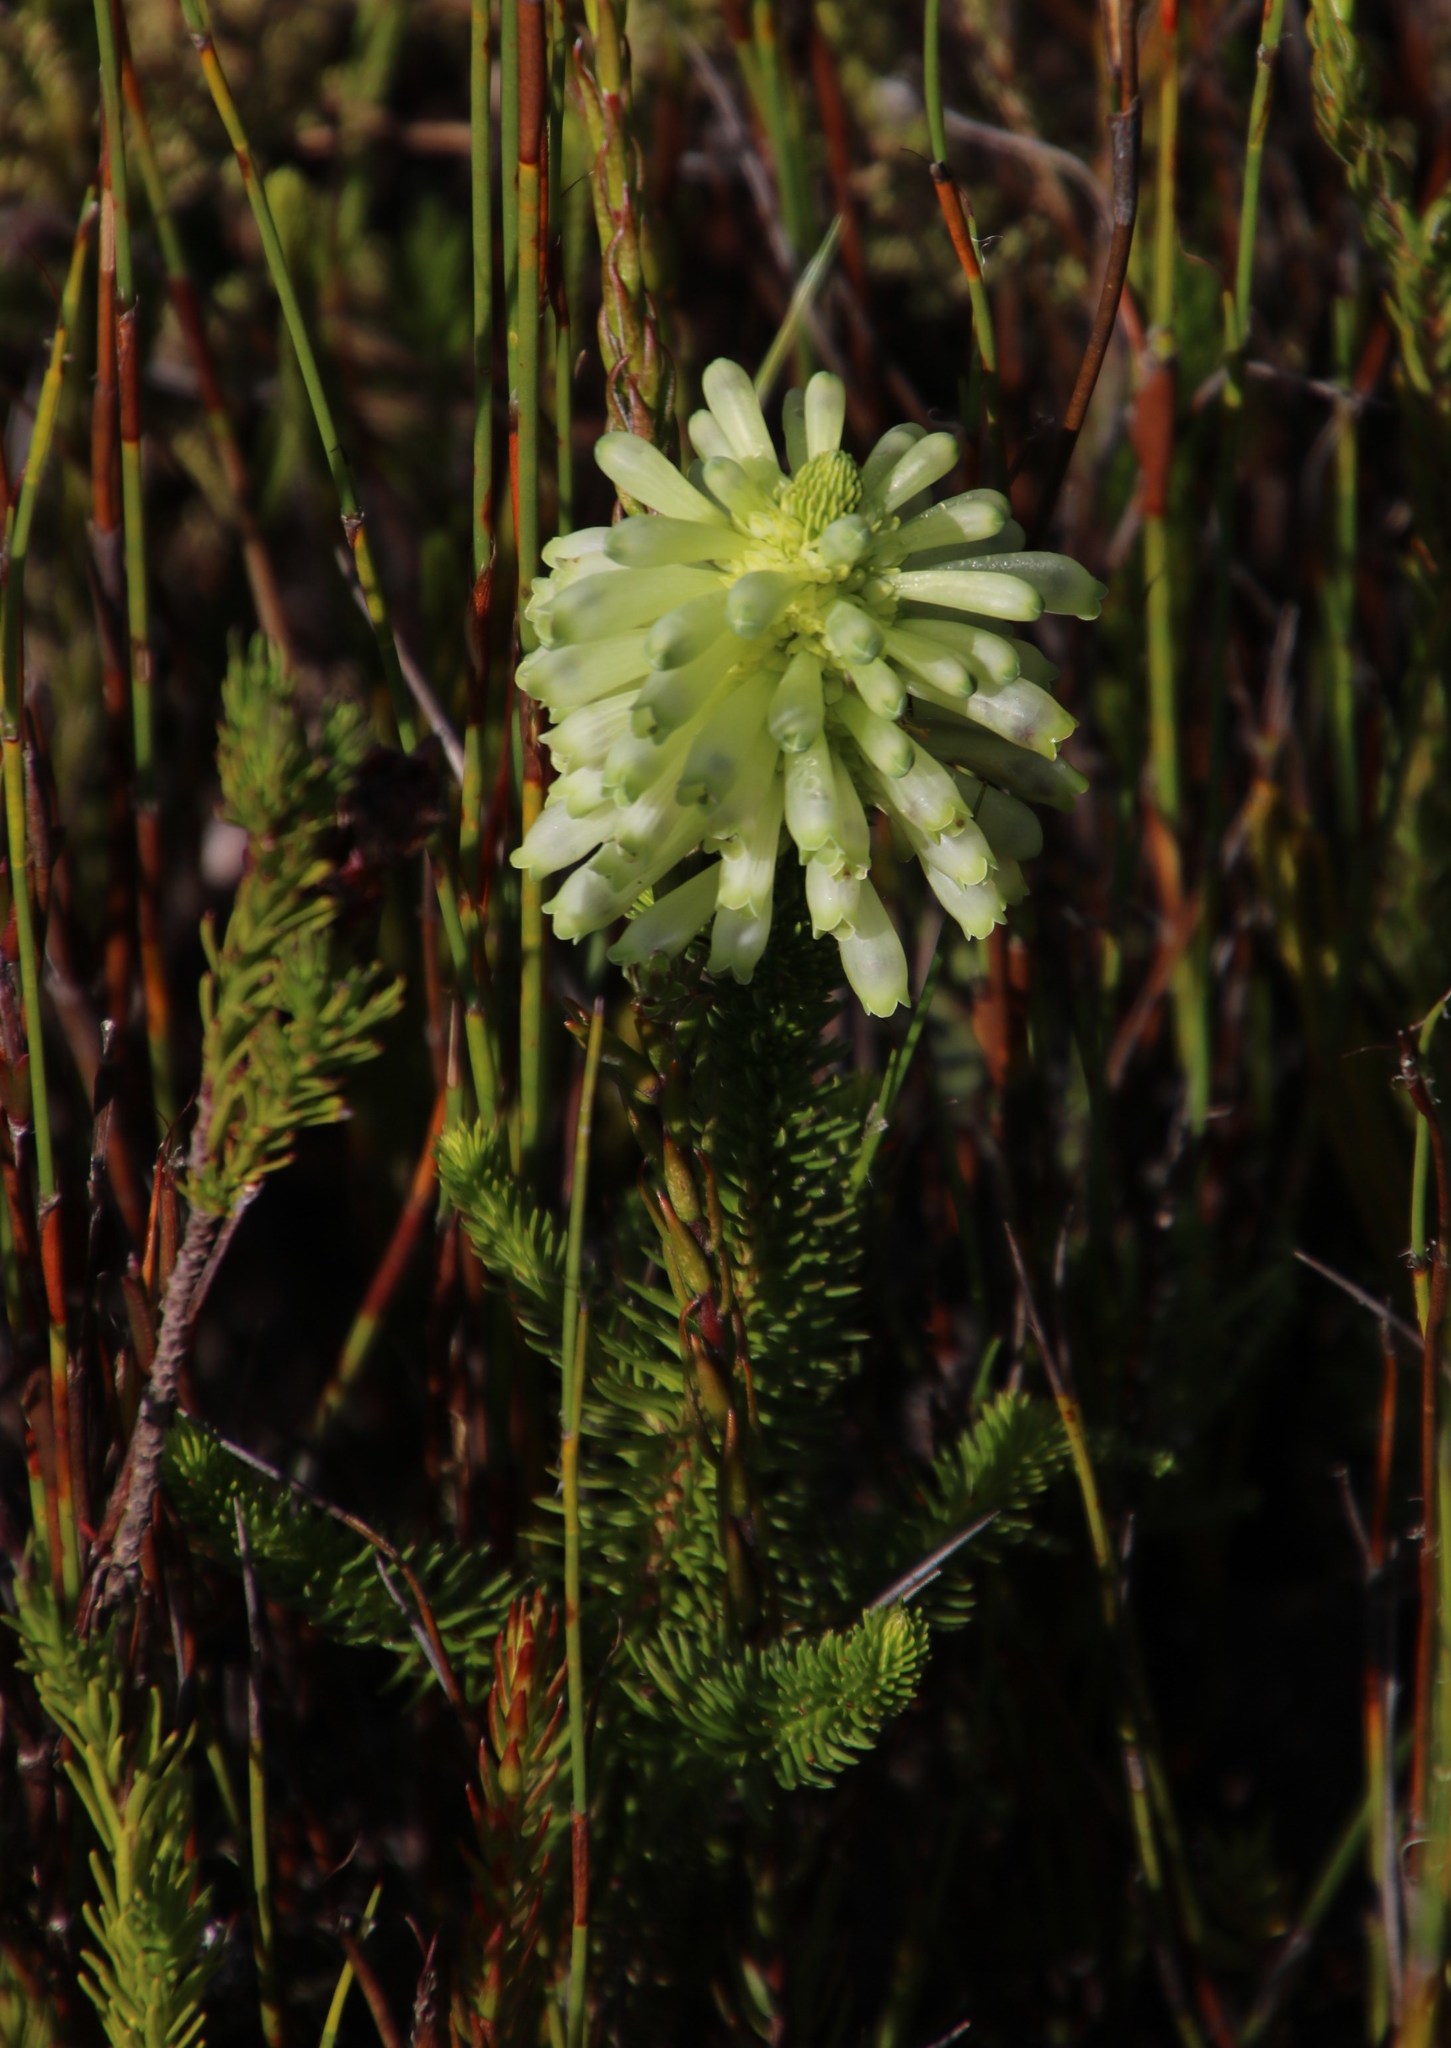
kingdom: Plantae
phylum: Tracheophyta
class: Magnoliopsida
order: Ericales
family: Ericaceae
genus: Erica
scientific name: Erica sessiliflora
